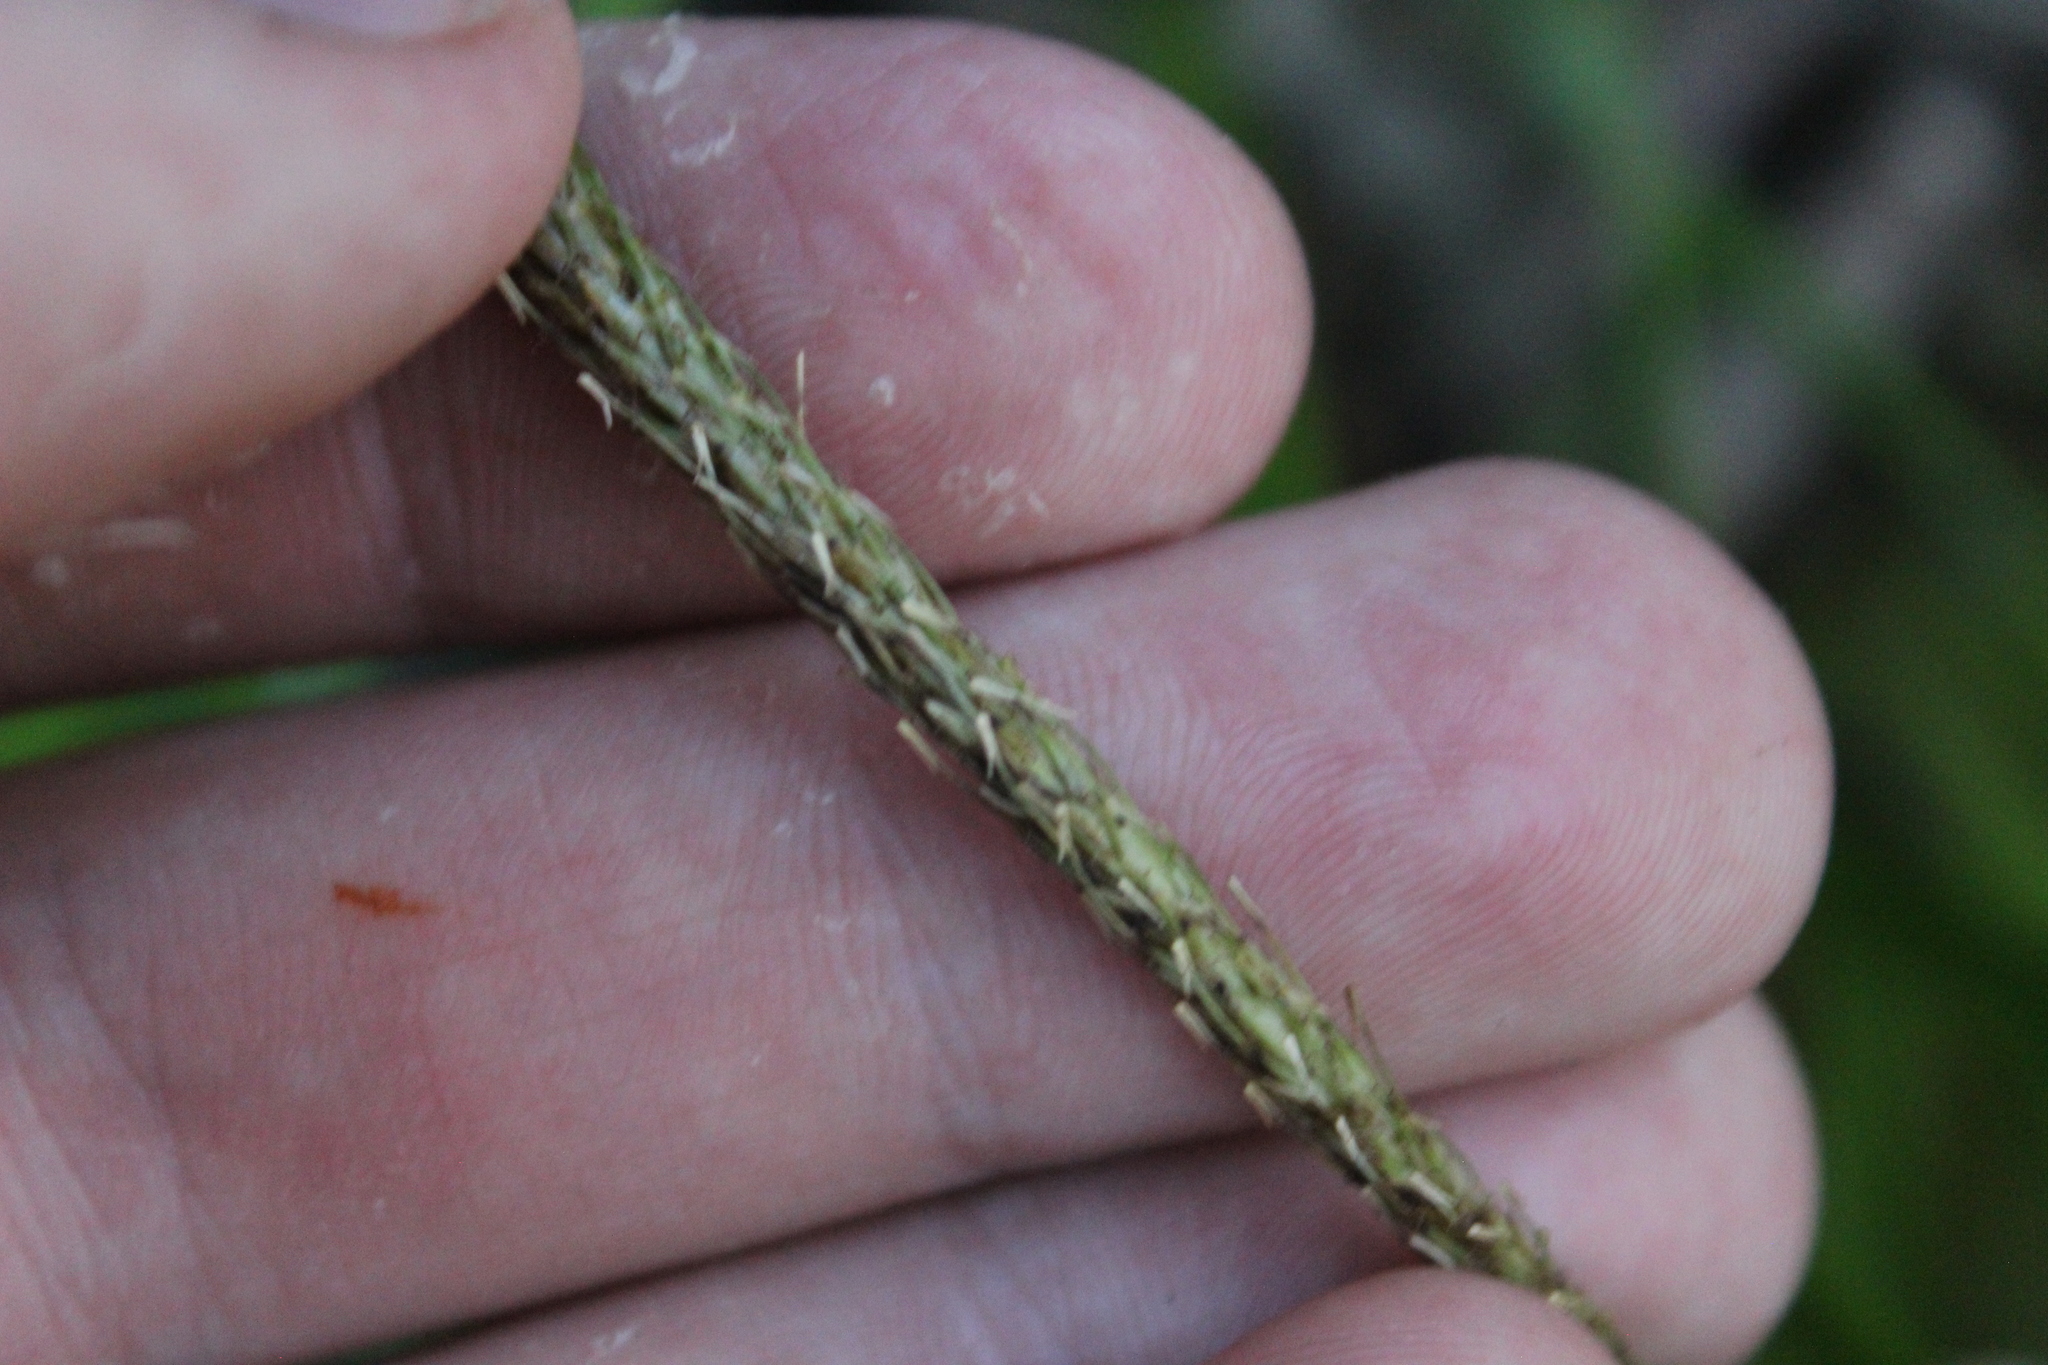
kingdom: Plantae
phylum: Tracheophyta
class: Liliopsida
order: Poales
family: Cyperaceae
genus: Carex
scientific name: Carex uncinata
